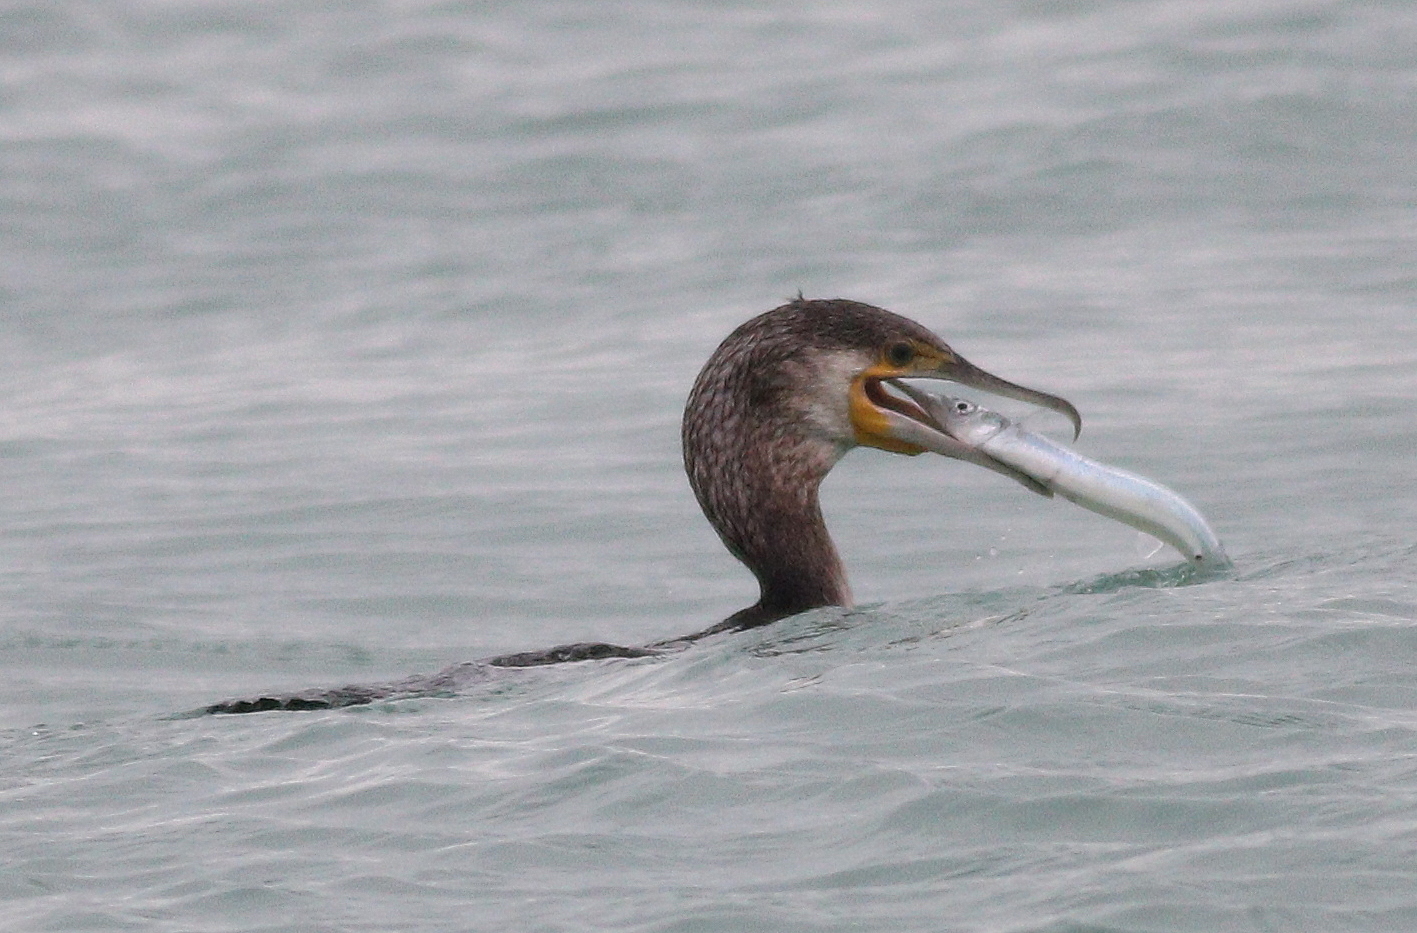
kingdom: Animalia
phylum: Chordata
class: Aves
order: Suliformes
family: Phalacrocoracidae
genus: Phalacrocorax
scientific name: Phalacrocorax carbo
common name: Great cormorant
